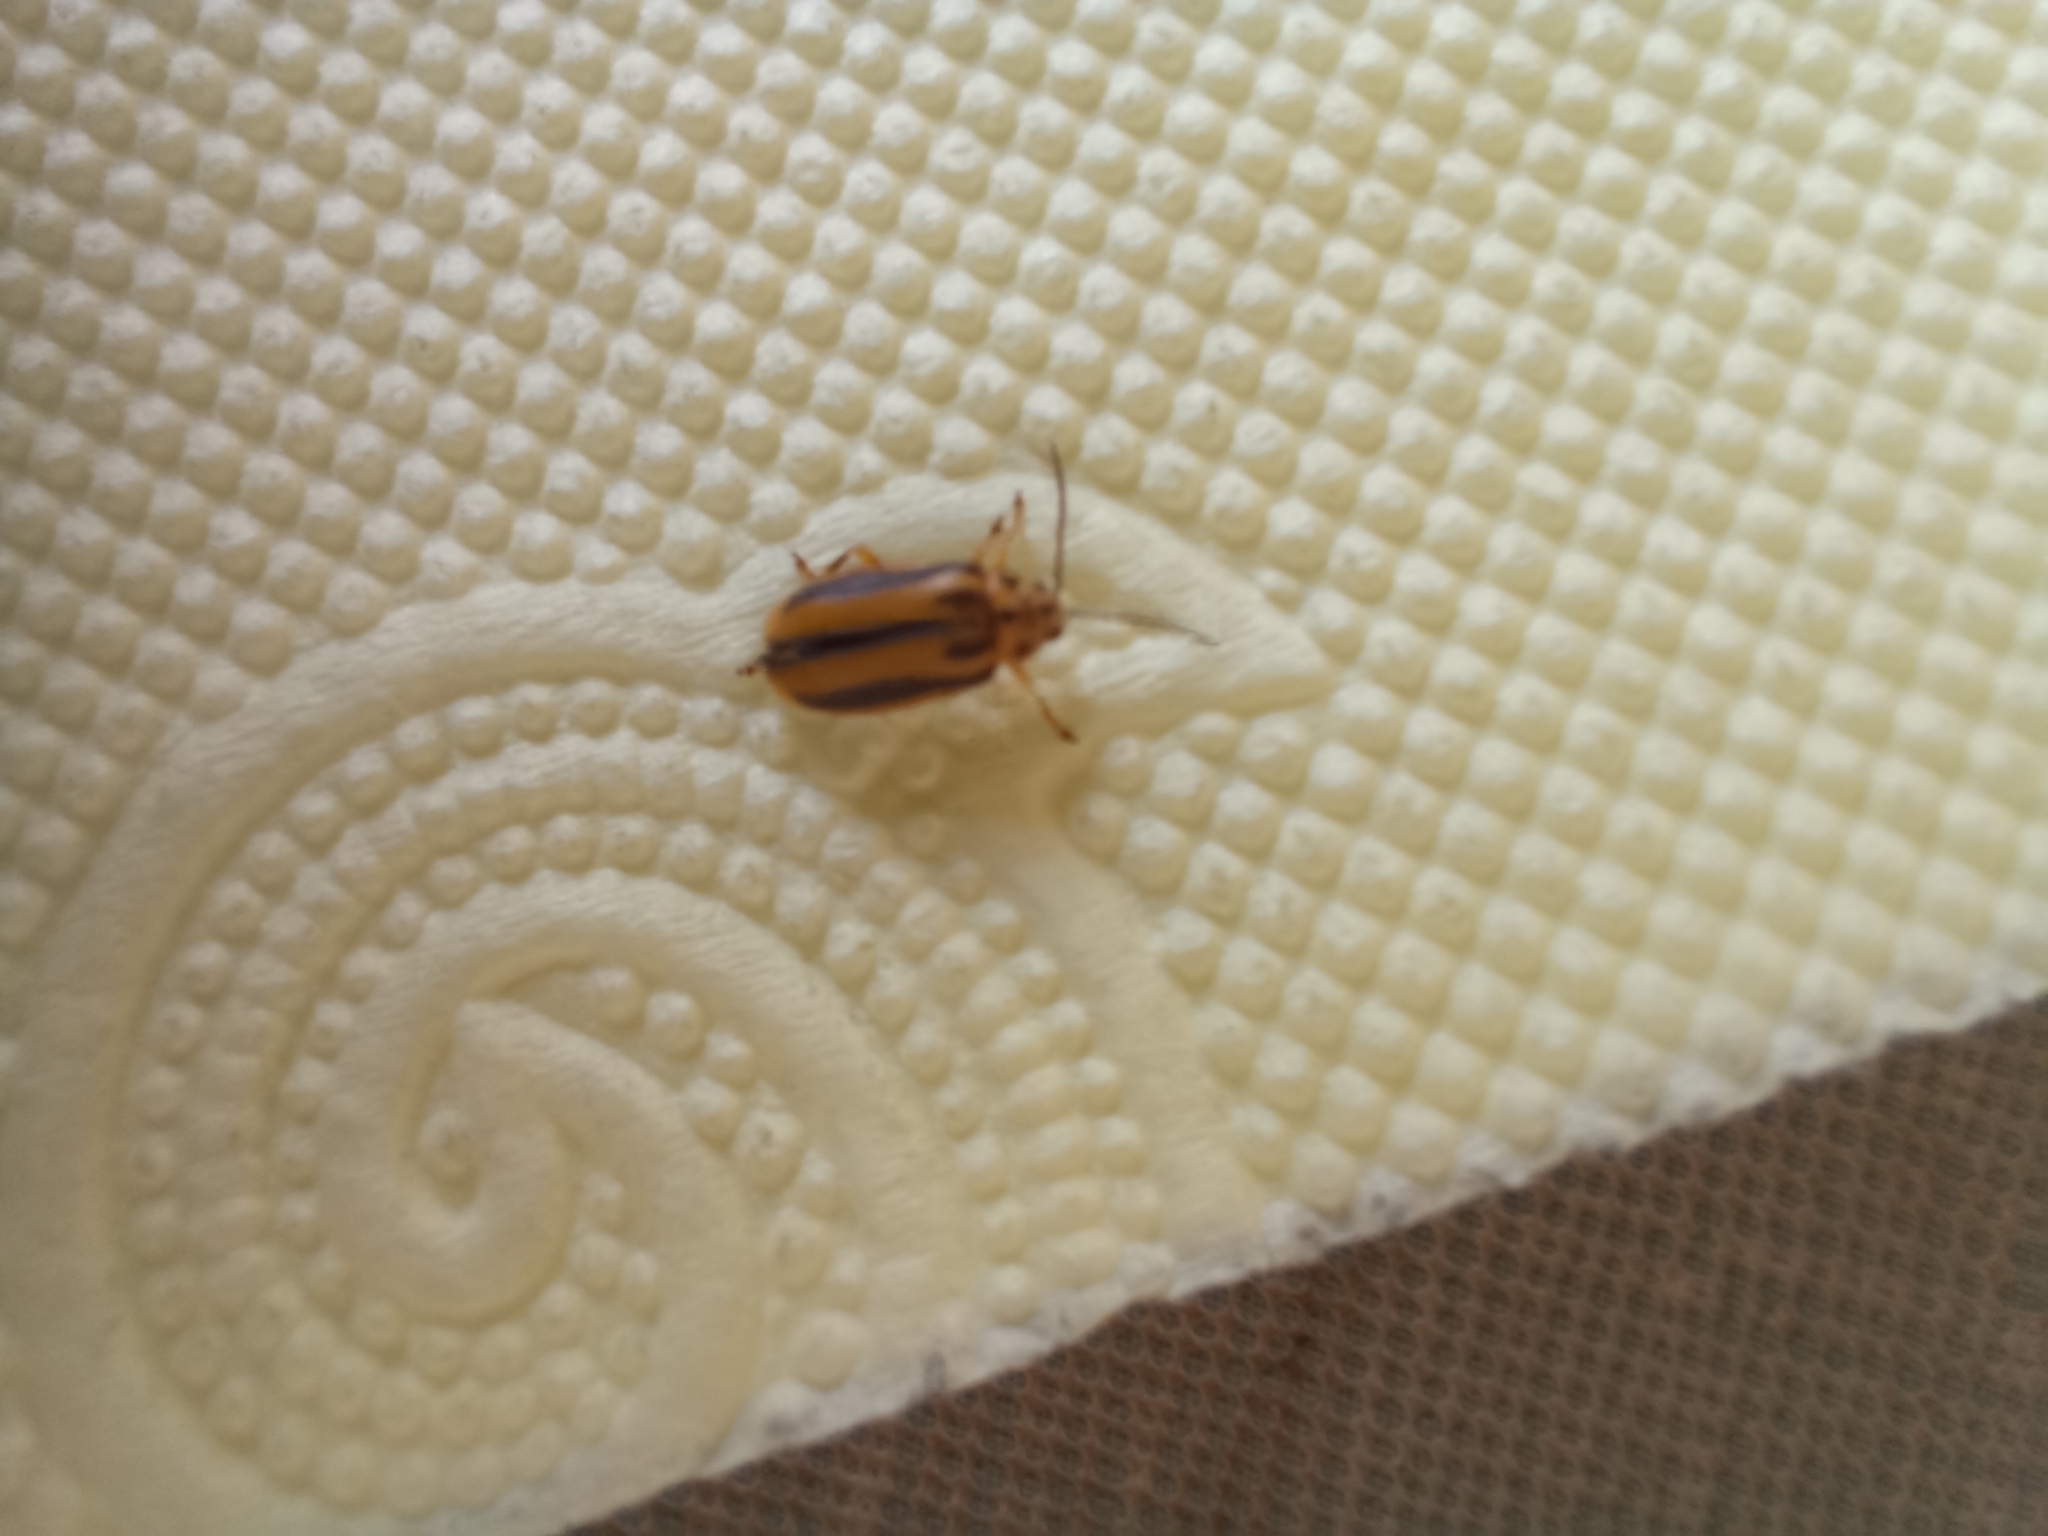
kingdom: Animalia
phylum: Arthropoda
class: Insecta
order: Coleoptera
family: Chrysomelidae
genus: Xanthogaleruca
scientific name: Xanthogaleruca luteola
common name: Elm leaf beetle
